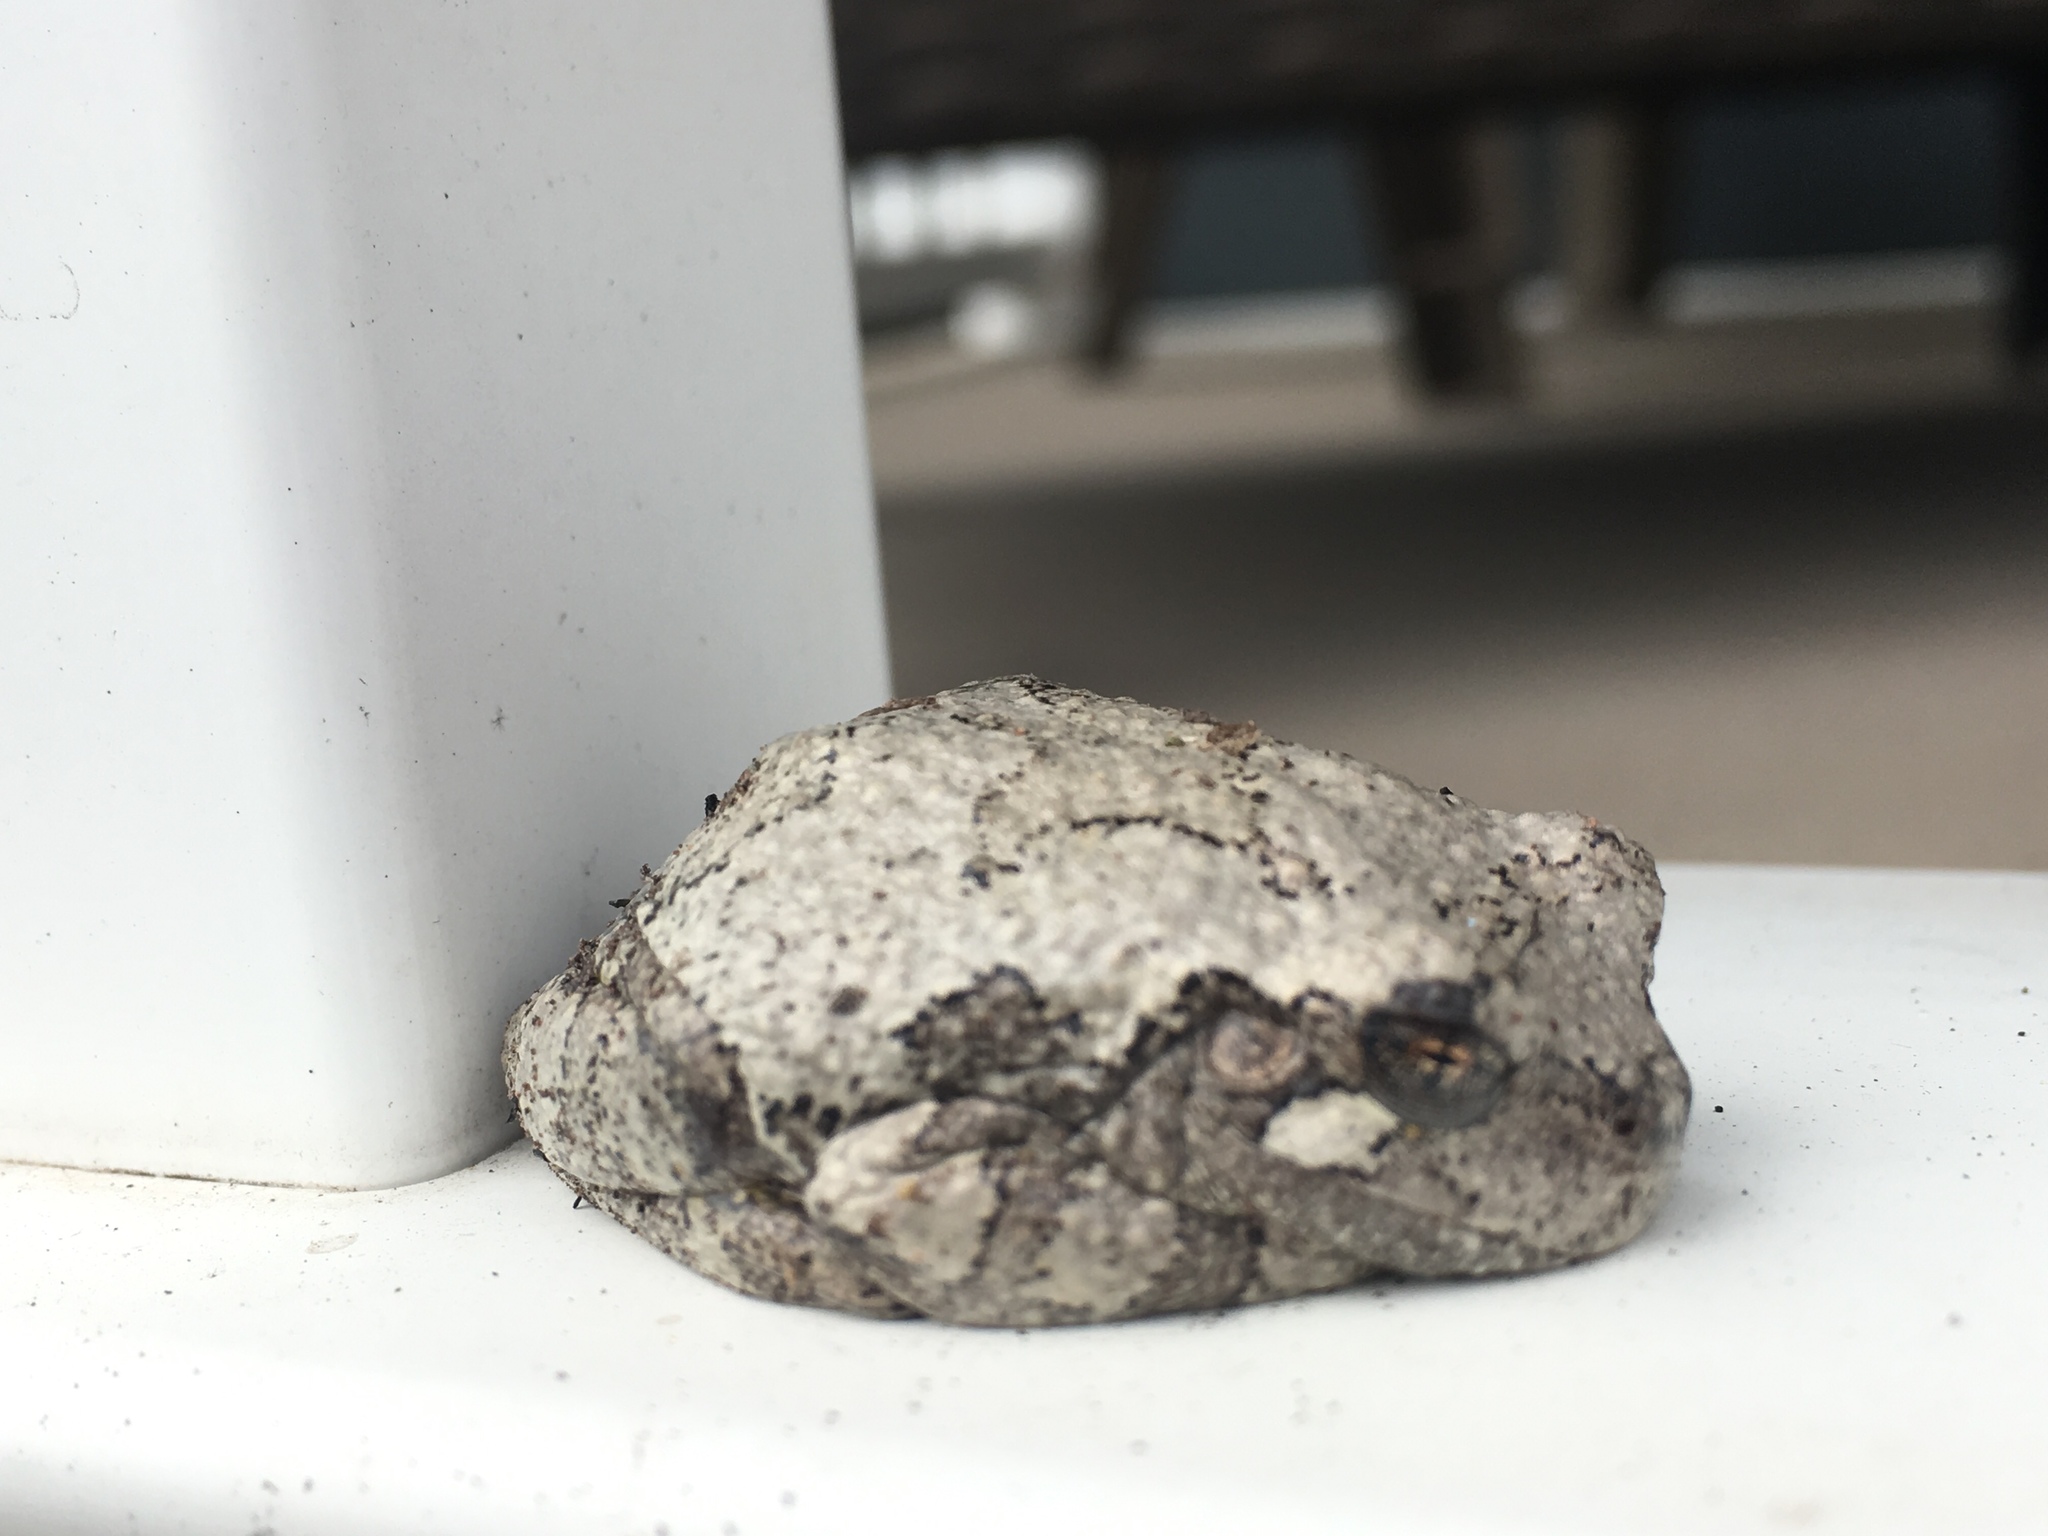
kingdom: Animalia
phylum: Chordata
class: Amphibia
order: Anura
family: Hylidae
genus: Hyla
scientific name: Hyla
